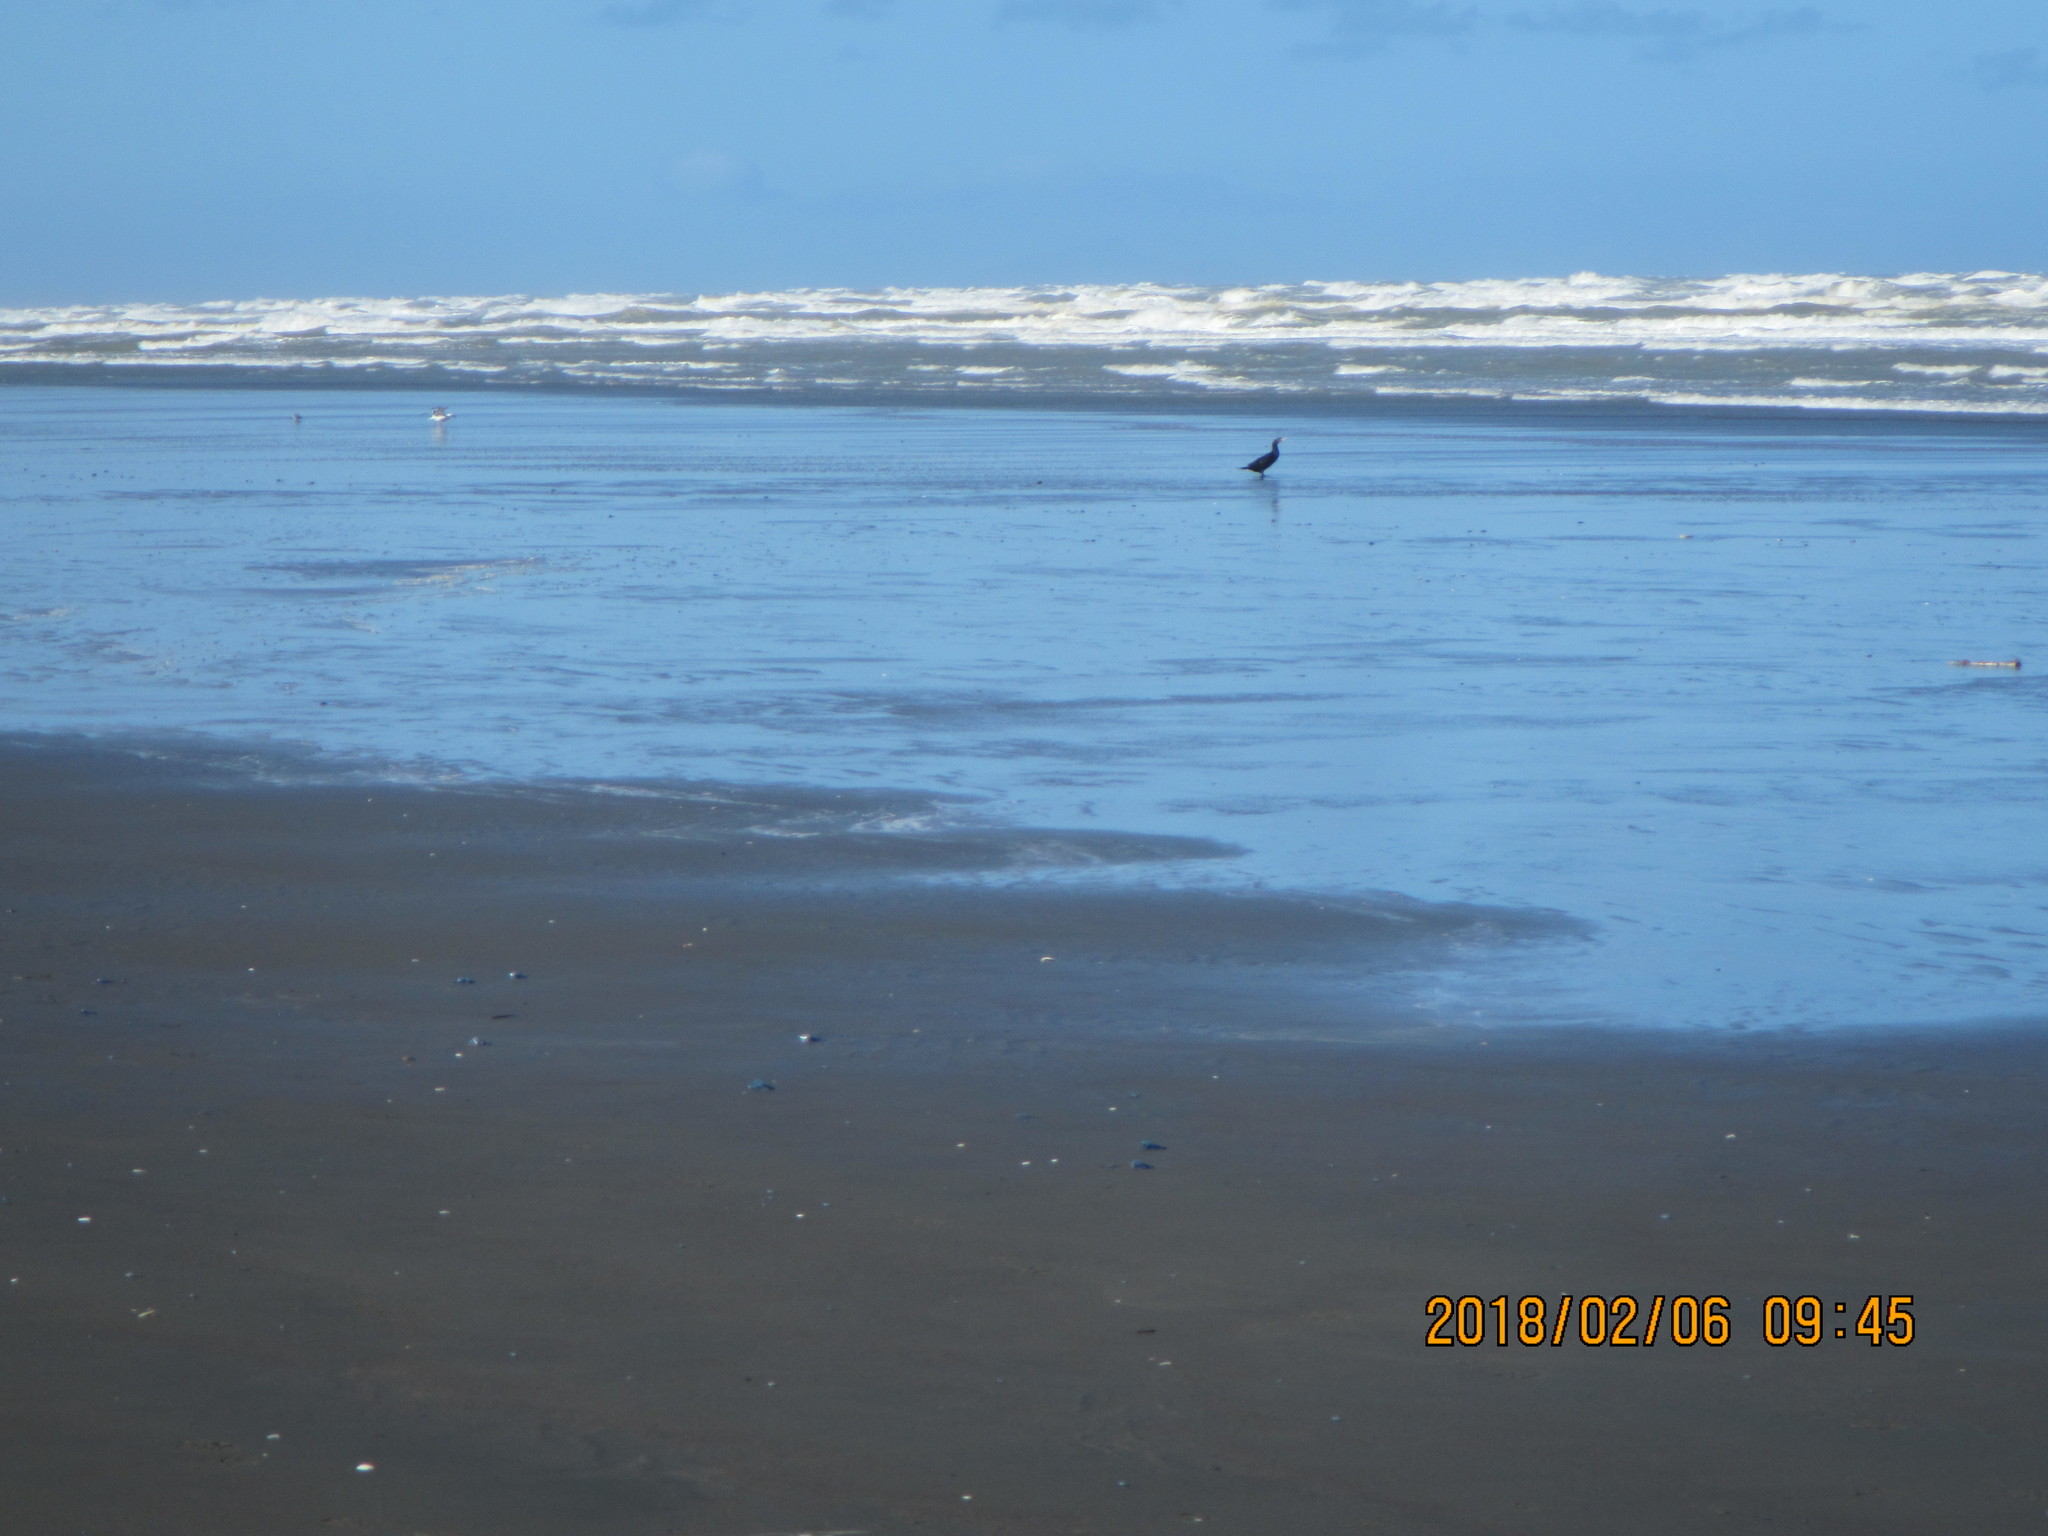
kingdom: Animalia
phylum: Chordata
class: Aves
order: Suliformes
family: Phalacrocoracidae
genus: Phalacrocorax
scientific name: Phalacrocorax carbo
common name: Great cormorant
